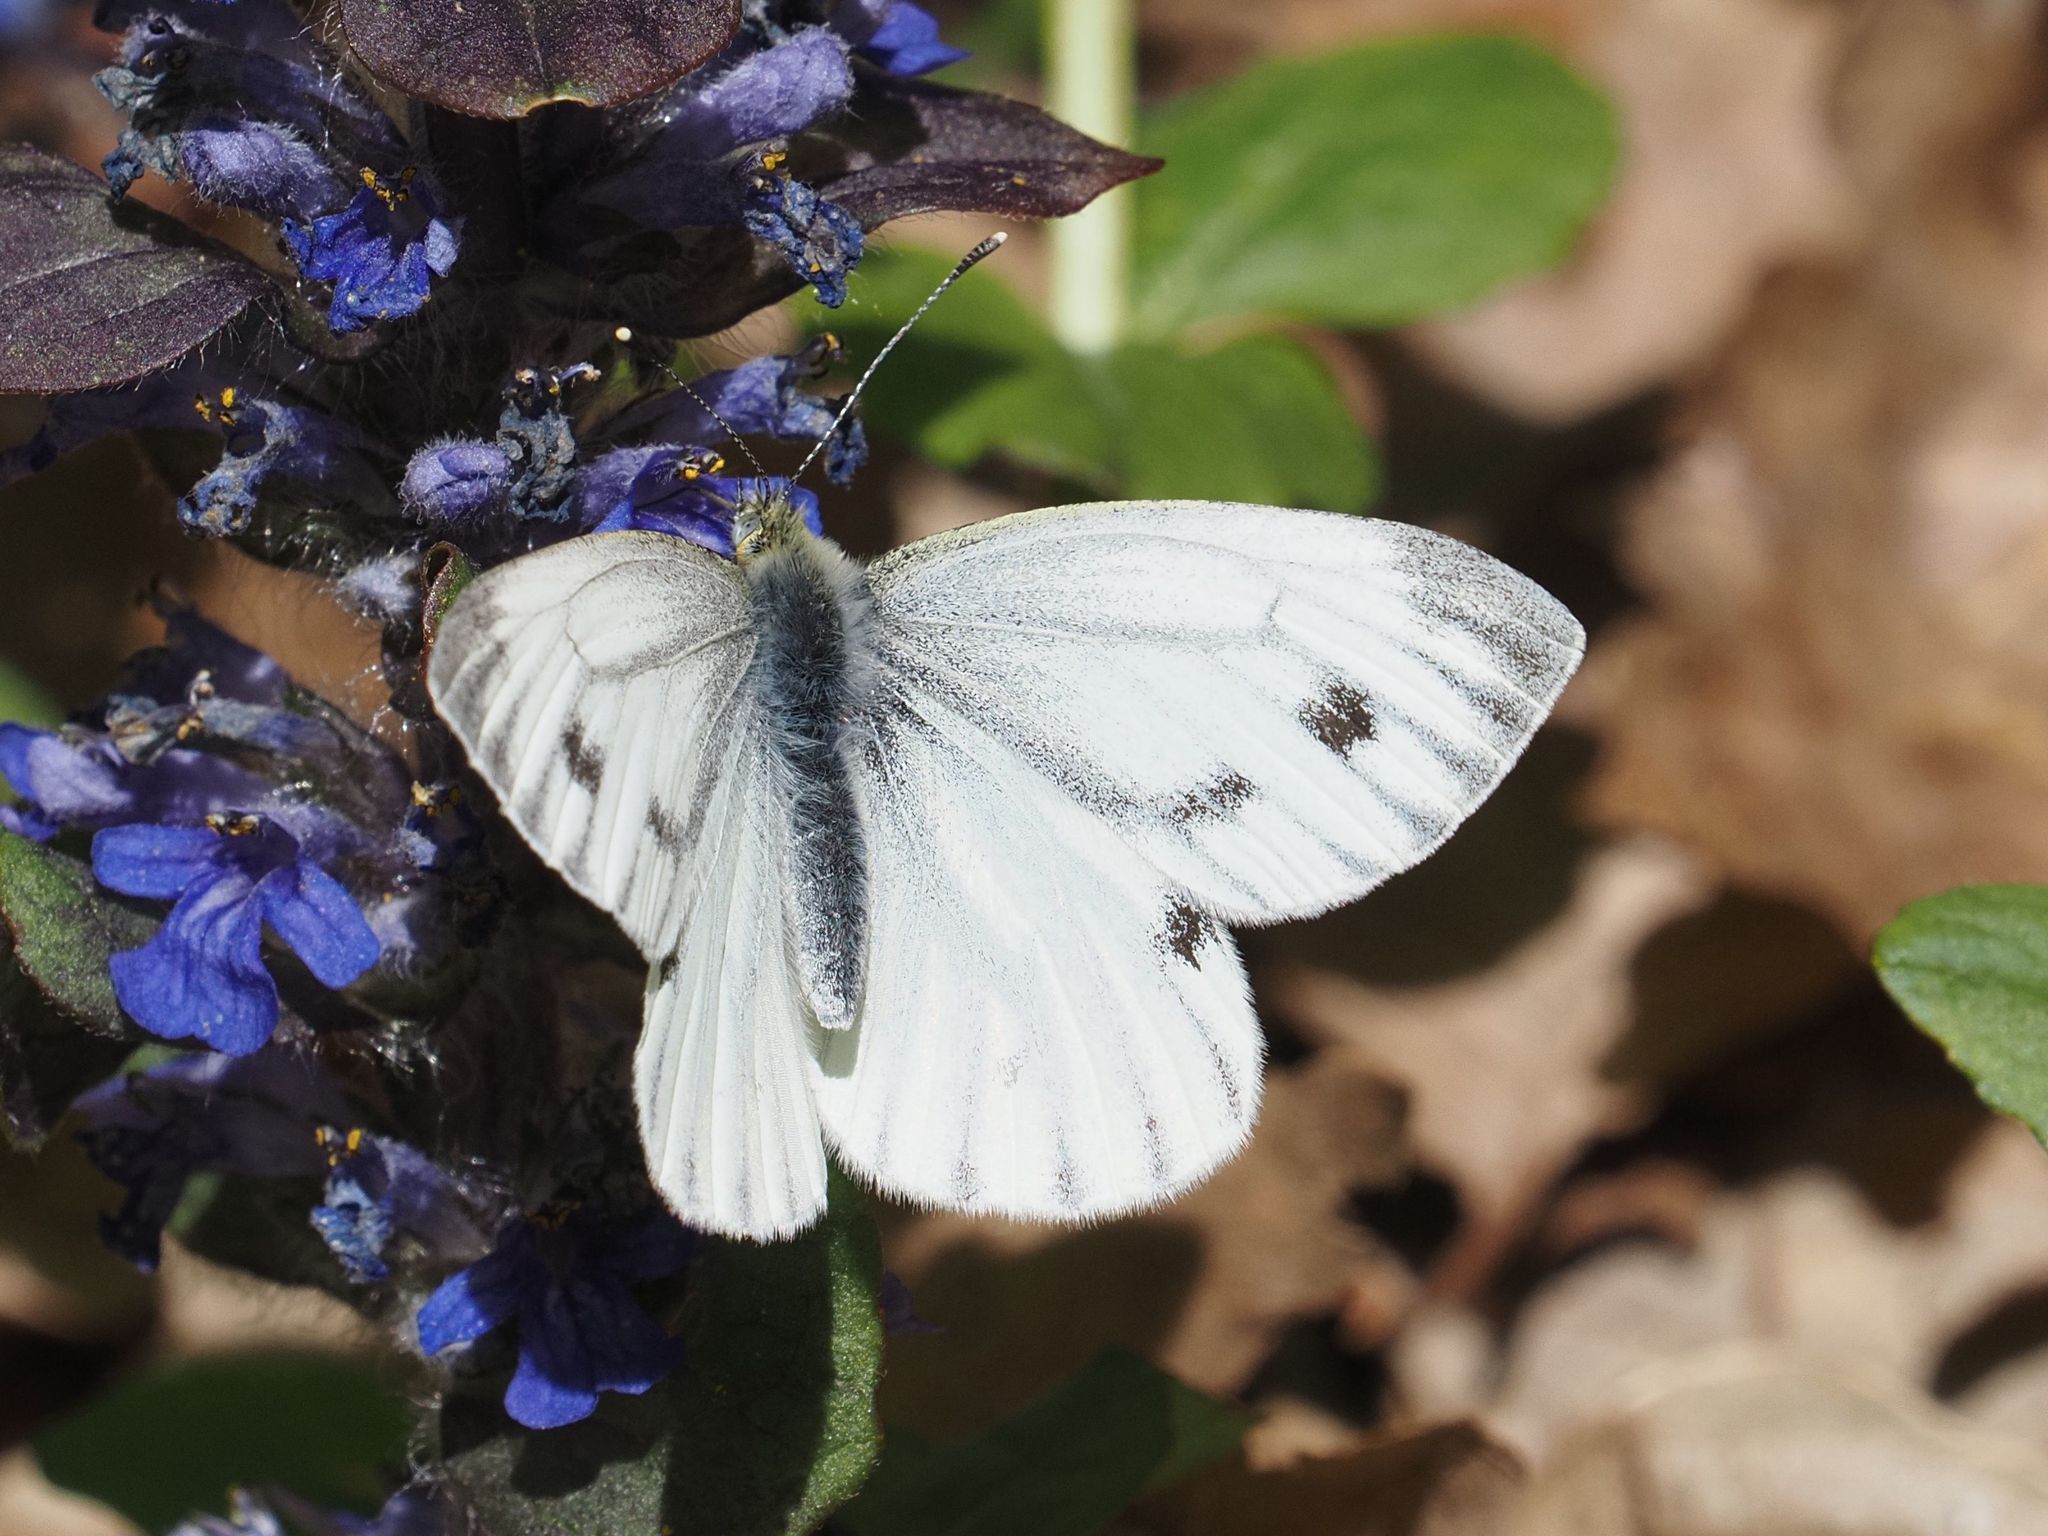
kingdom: Animalia
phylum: Arthropoda
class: Insecta
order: Lepidoptera
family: Pieridae
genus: Pieris
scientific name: Pieris napi
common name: Green-veined white
